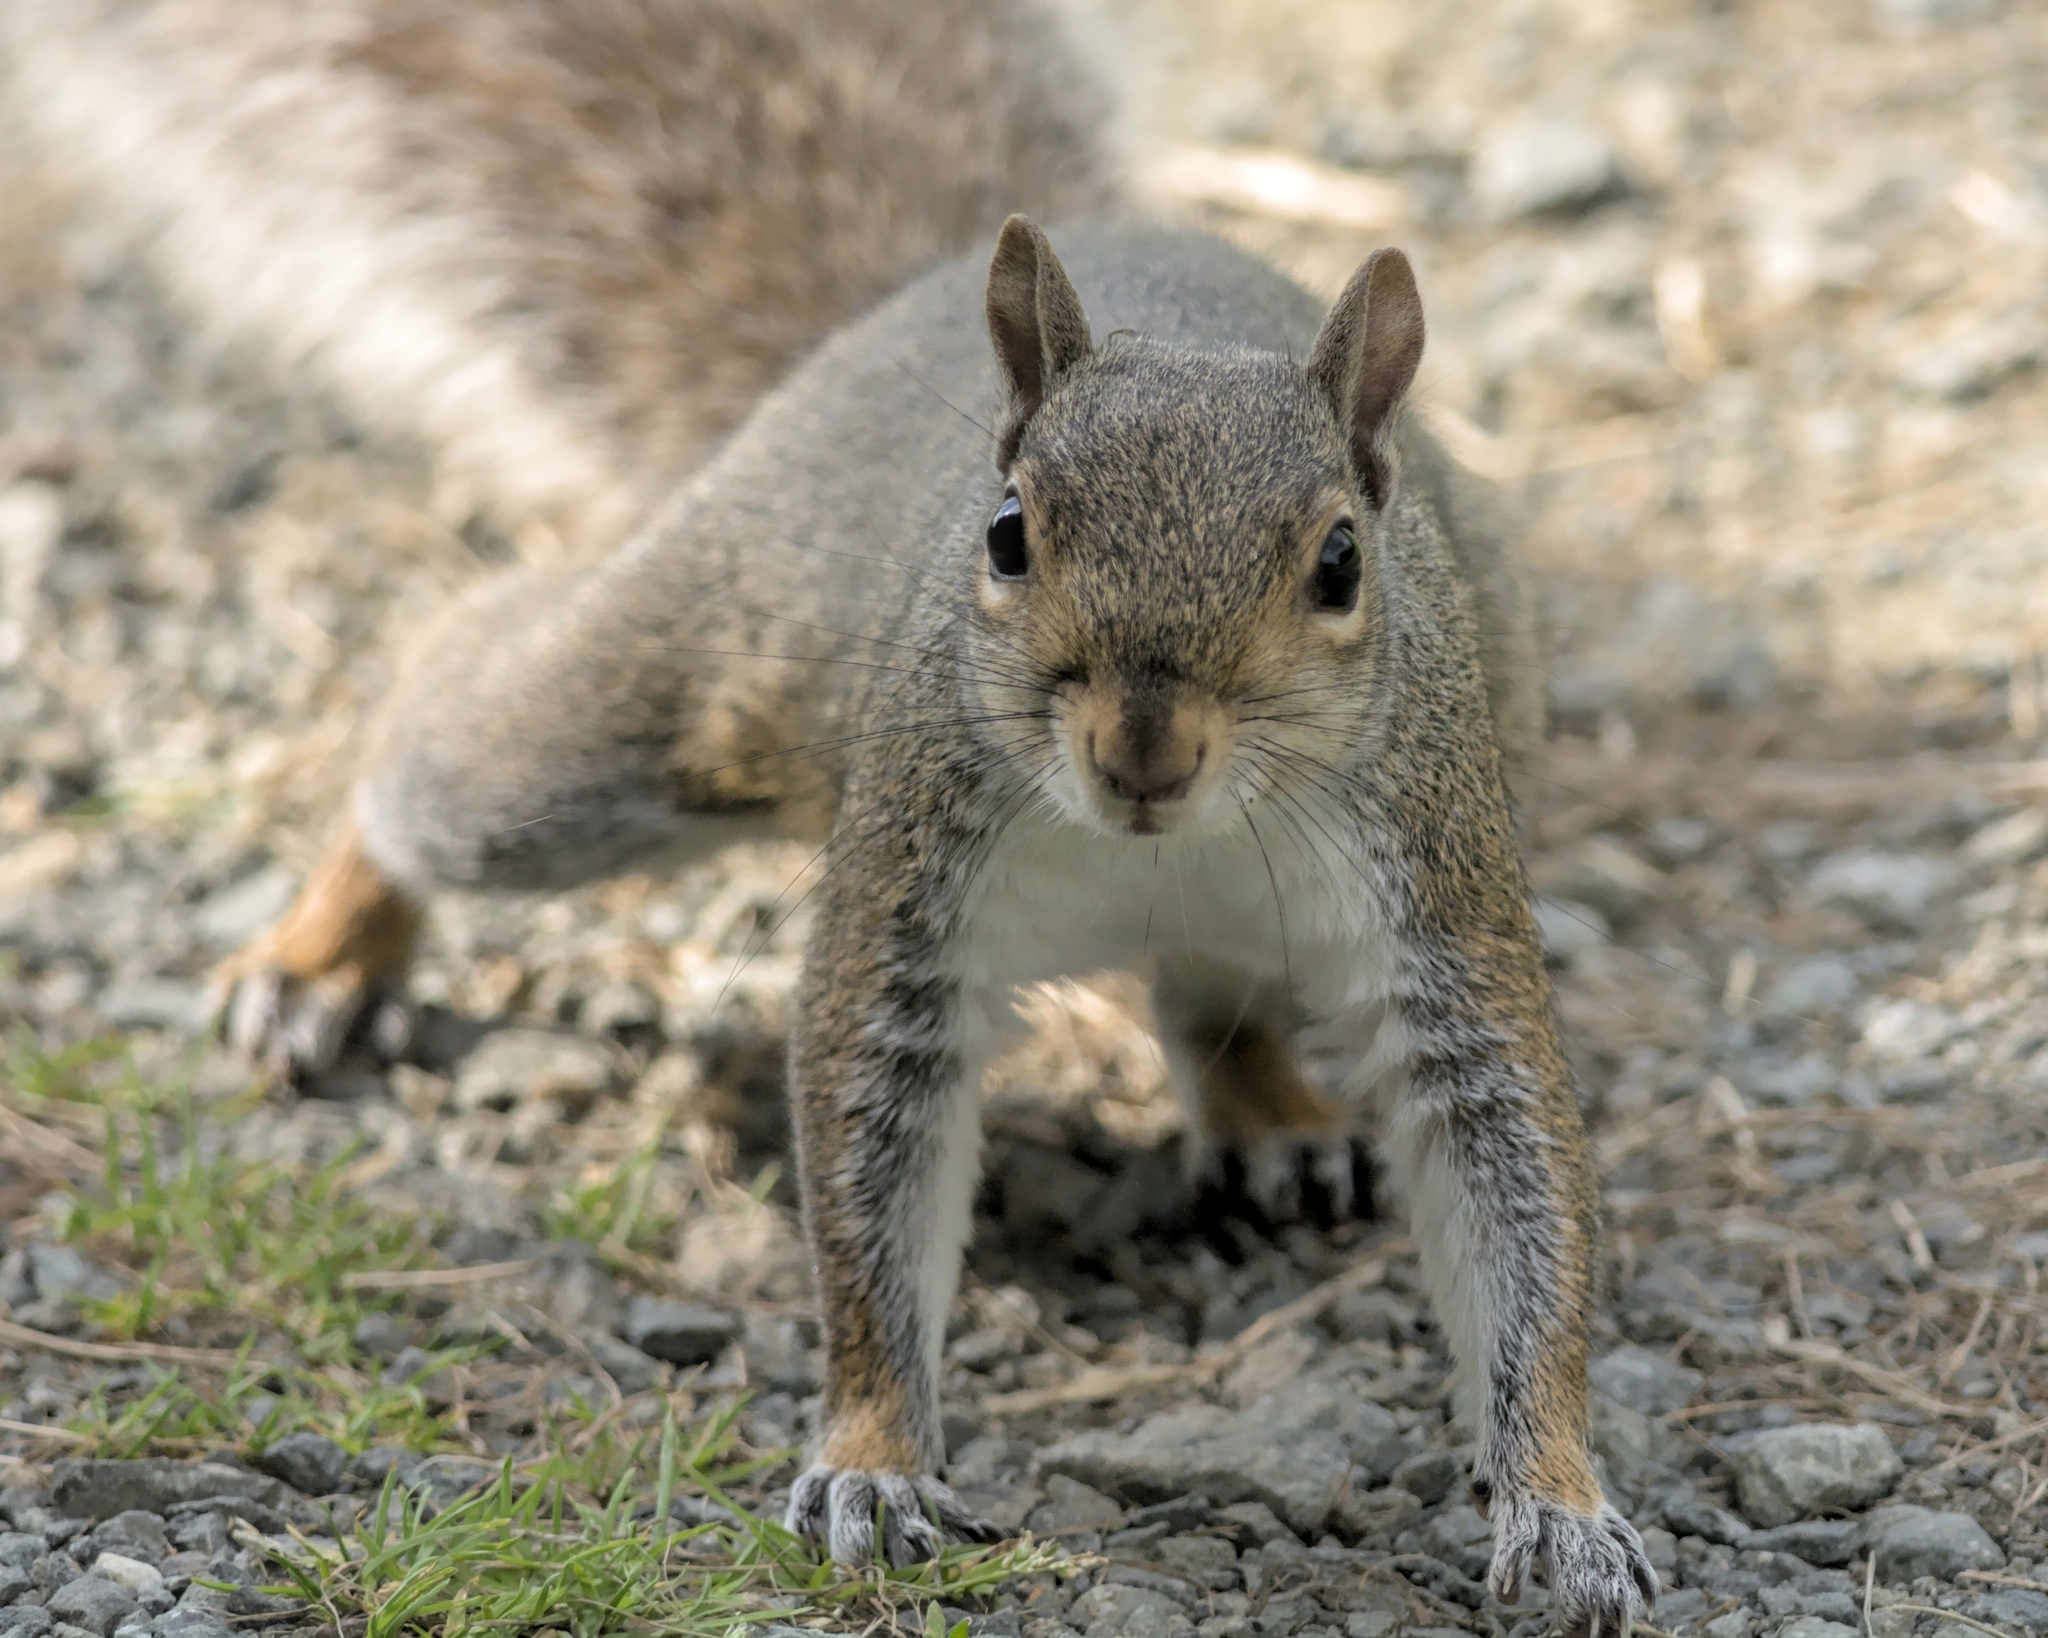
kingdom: Animalia
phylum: Chordata
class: Mammalia
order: Rodentia
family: Sciuridae
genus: Sciurus
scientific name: Sciurus carolinensis
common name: Eastern gray squirrel
